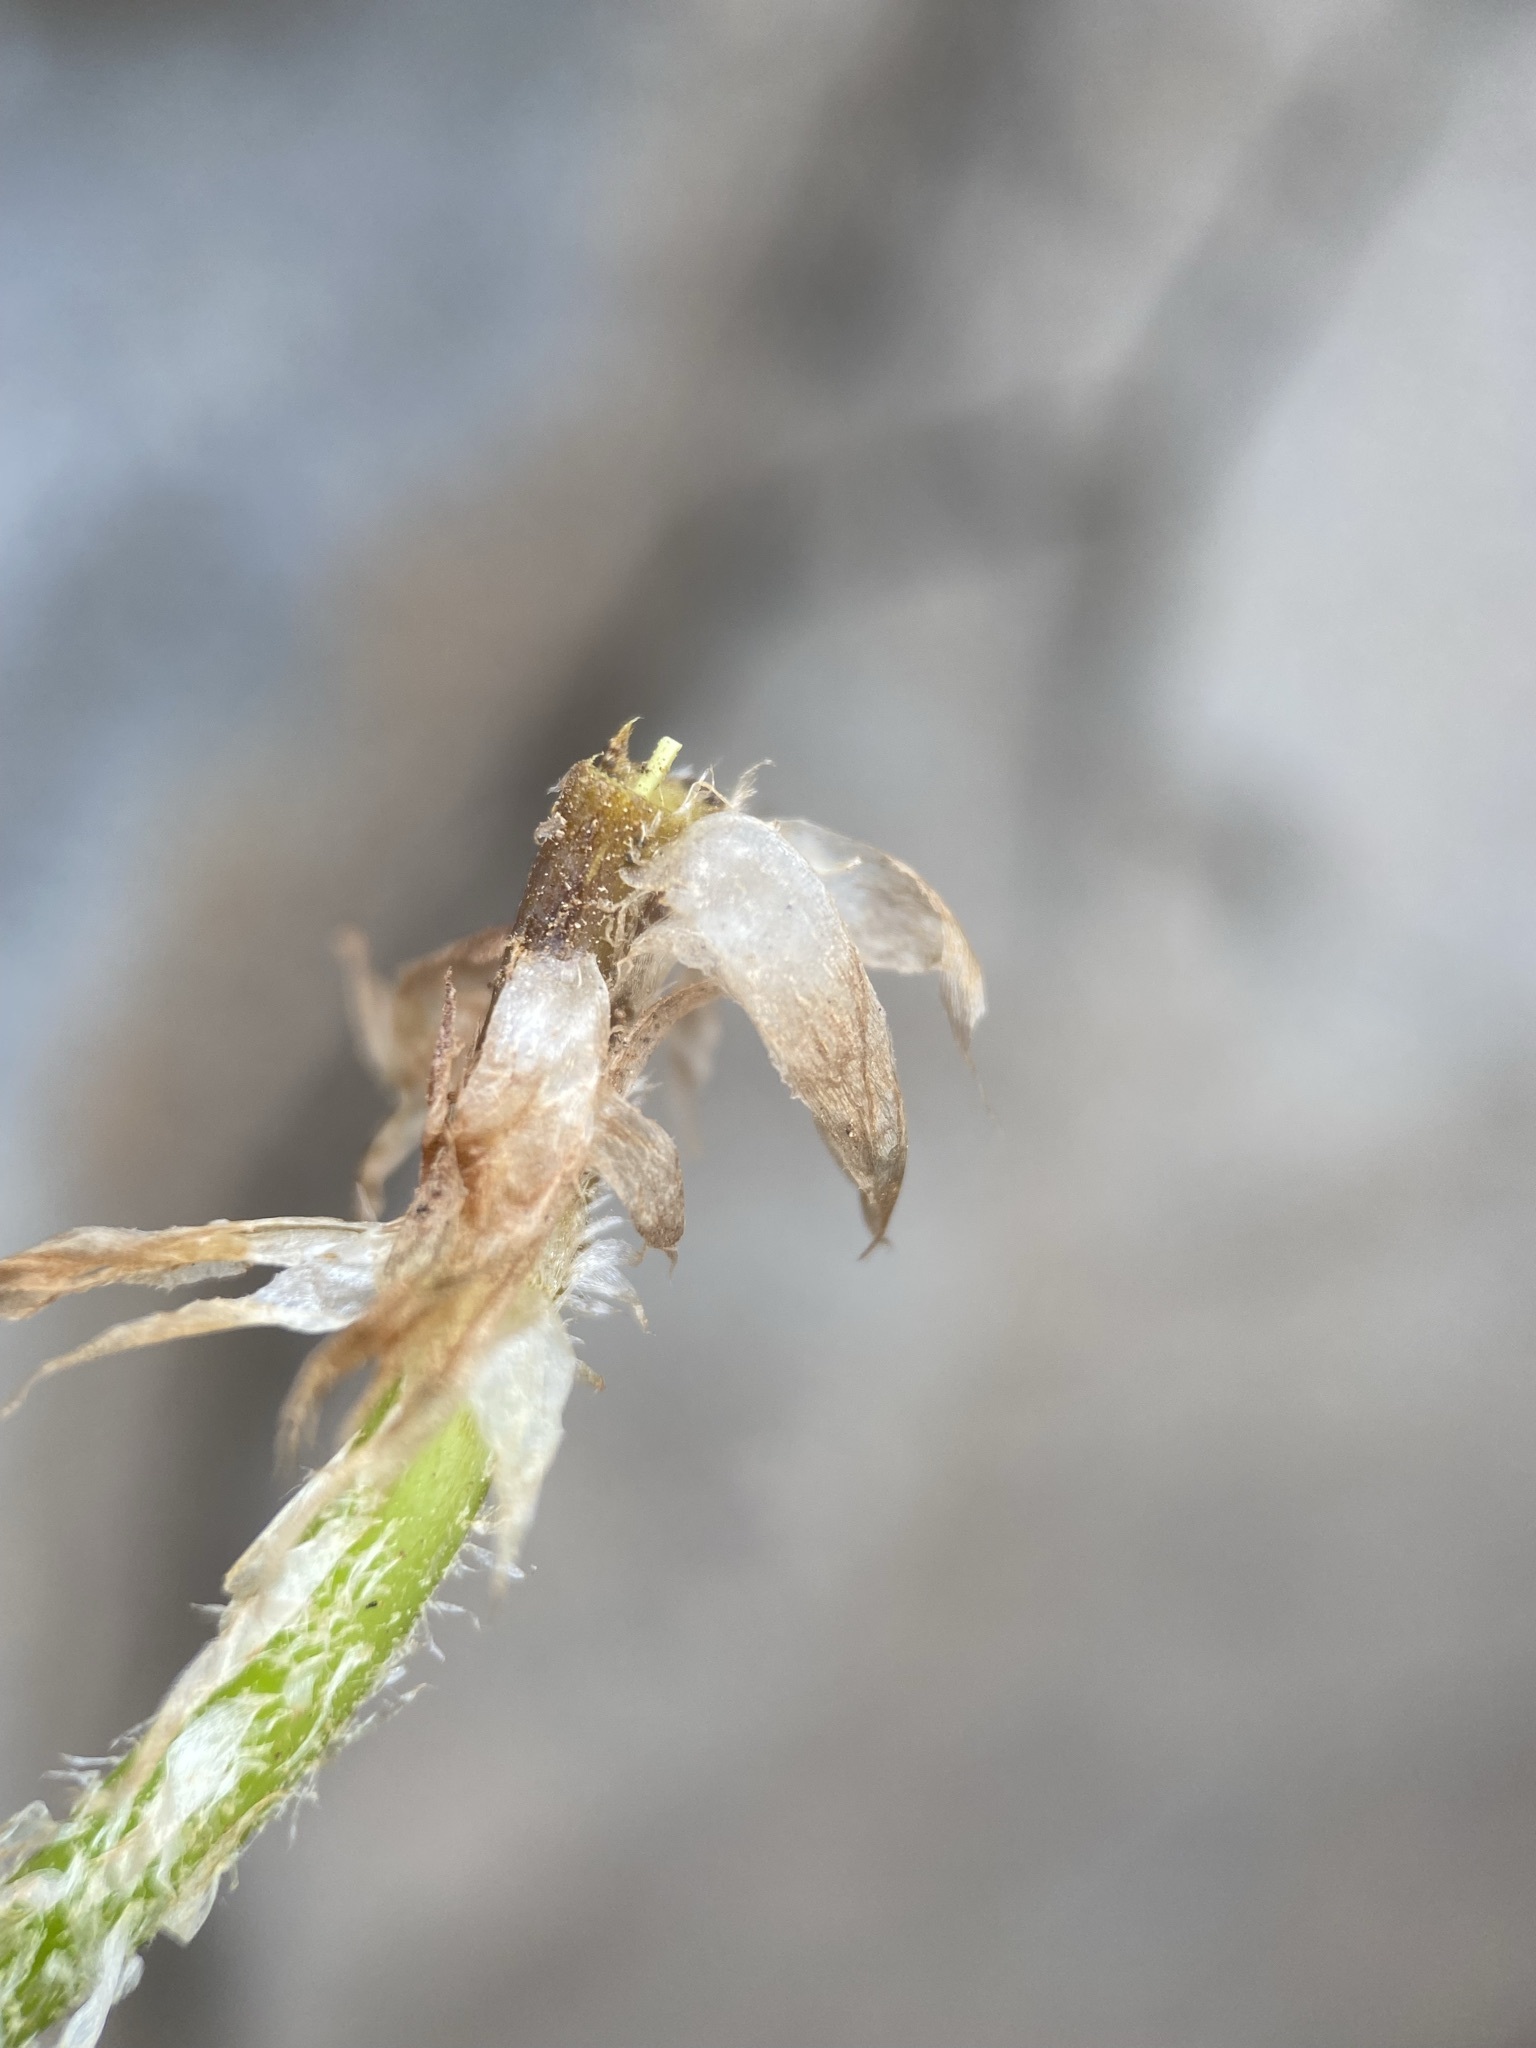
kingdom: Plantae
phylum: Tracheophyta
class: Polypodiopsida
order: Polypodiales
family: Dryopteridaceae
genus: Polystichum
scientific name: Polystichum scopulinum
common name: Eaton's shield fern
